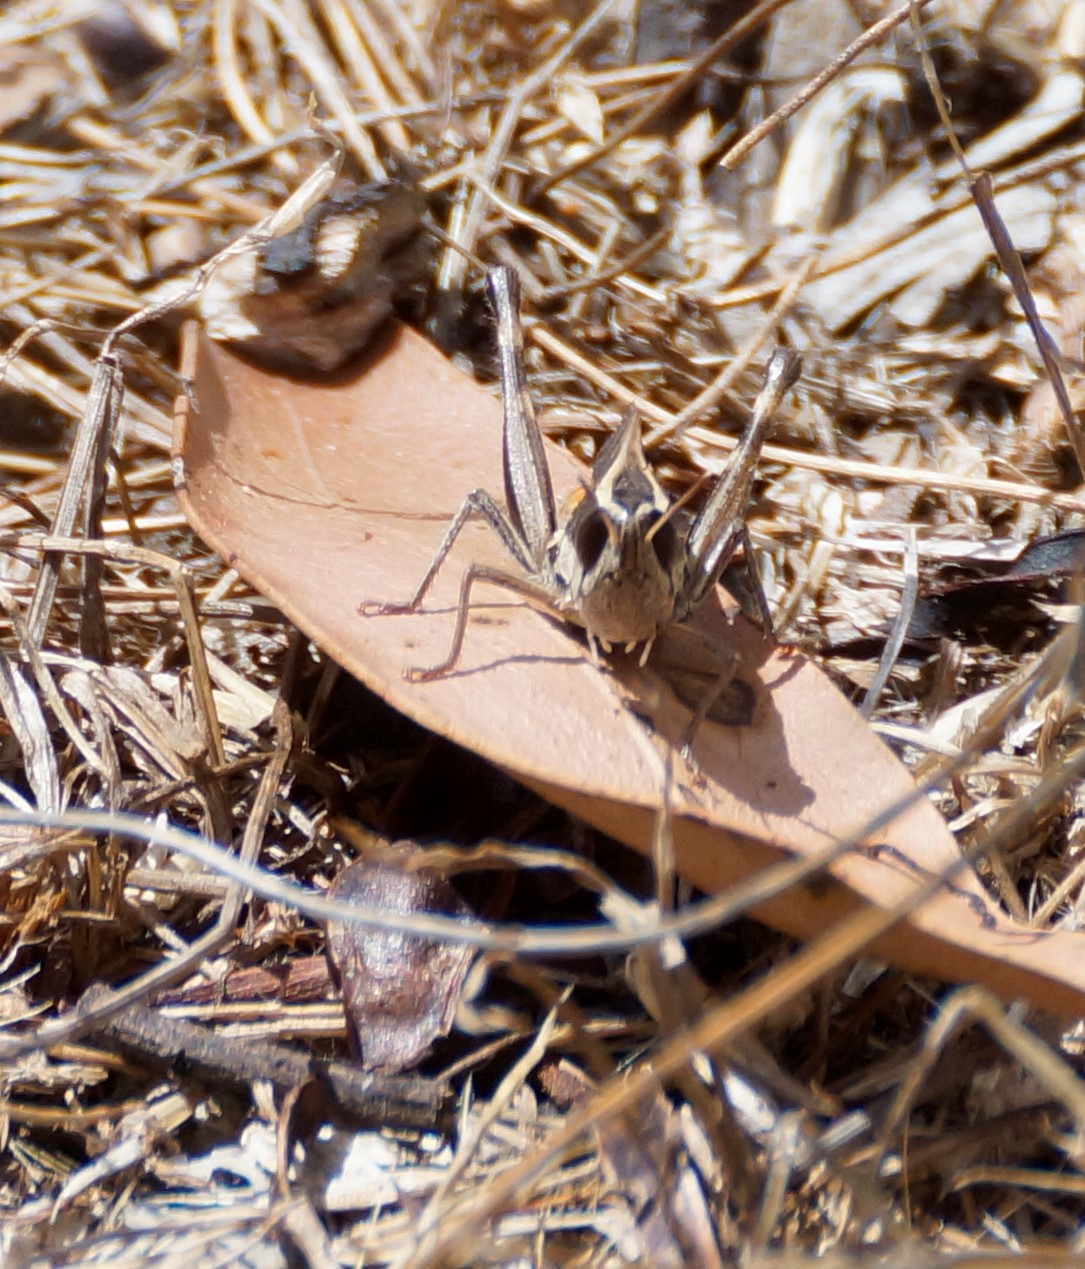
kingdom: Animalia
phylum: Arthropoda
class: Insecta
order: Orthoptera
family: Acrididae
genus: Macrotona
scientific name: Macrotona securiformis
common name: Inland macrotona
